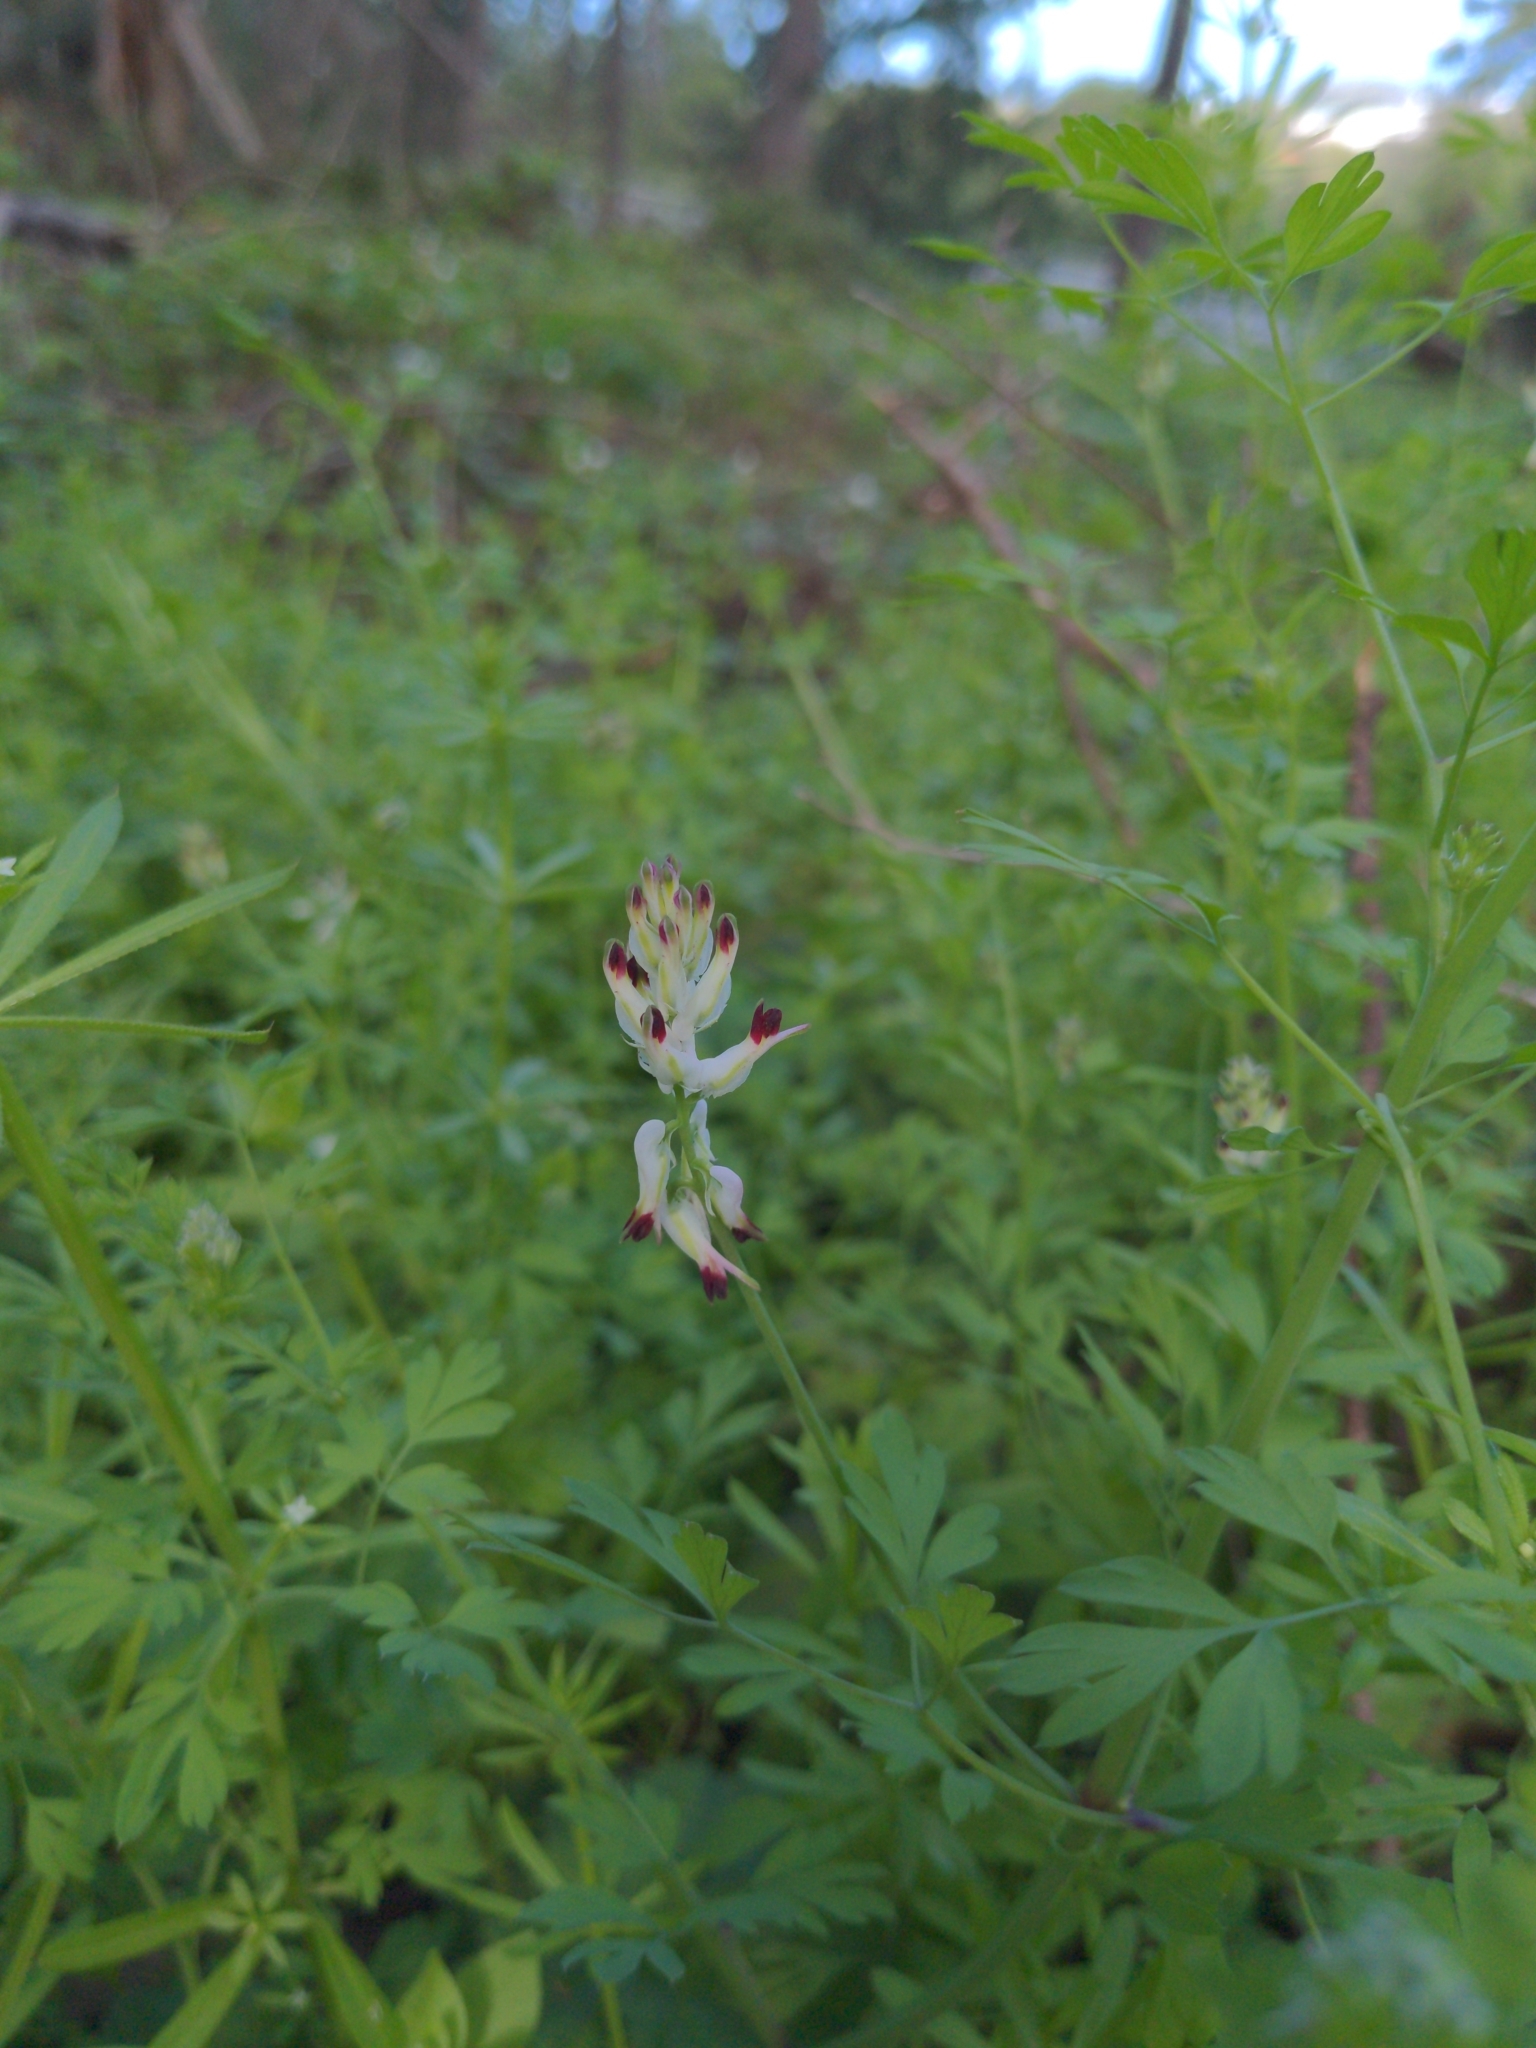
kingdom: Plantae
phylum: Tracheophyta
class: Magnoliopsida
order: Ranunculales
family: Papaveraceae
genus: Fumaria
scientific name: Fumaria capreolata
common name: White ramping-fumitory
